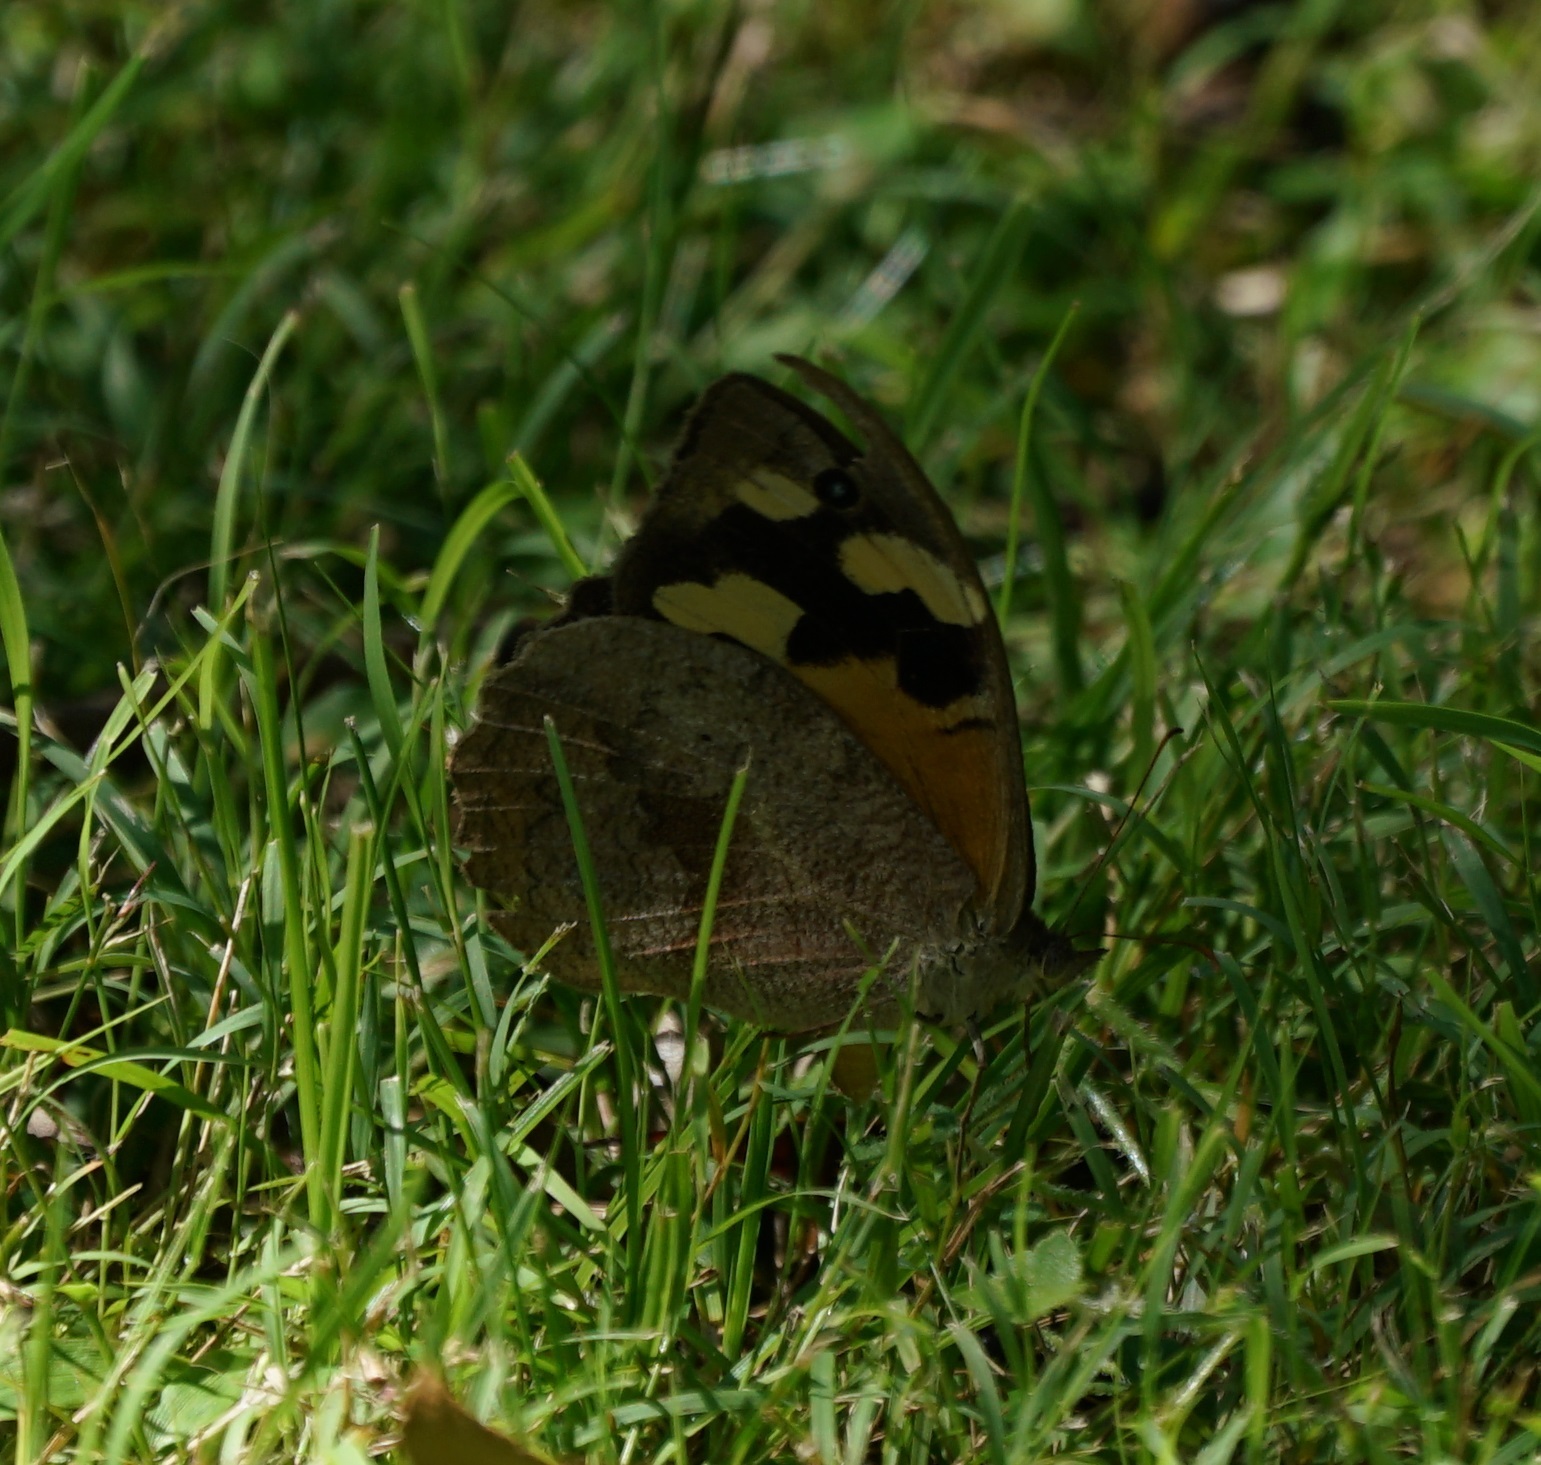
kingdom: Animalia
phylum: Arthropoda
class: Insecta
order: Lepidoptera
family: Nymphalidae
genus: Heteronympha
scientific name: Heteronympha merope
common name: Common brown
